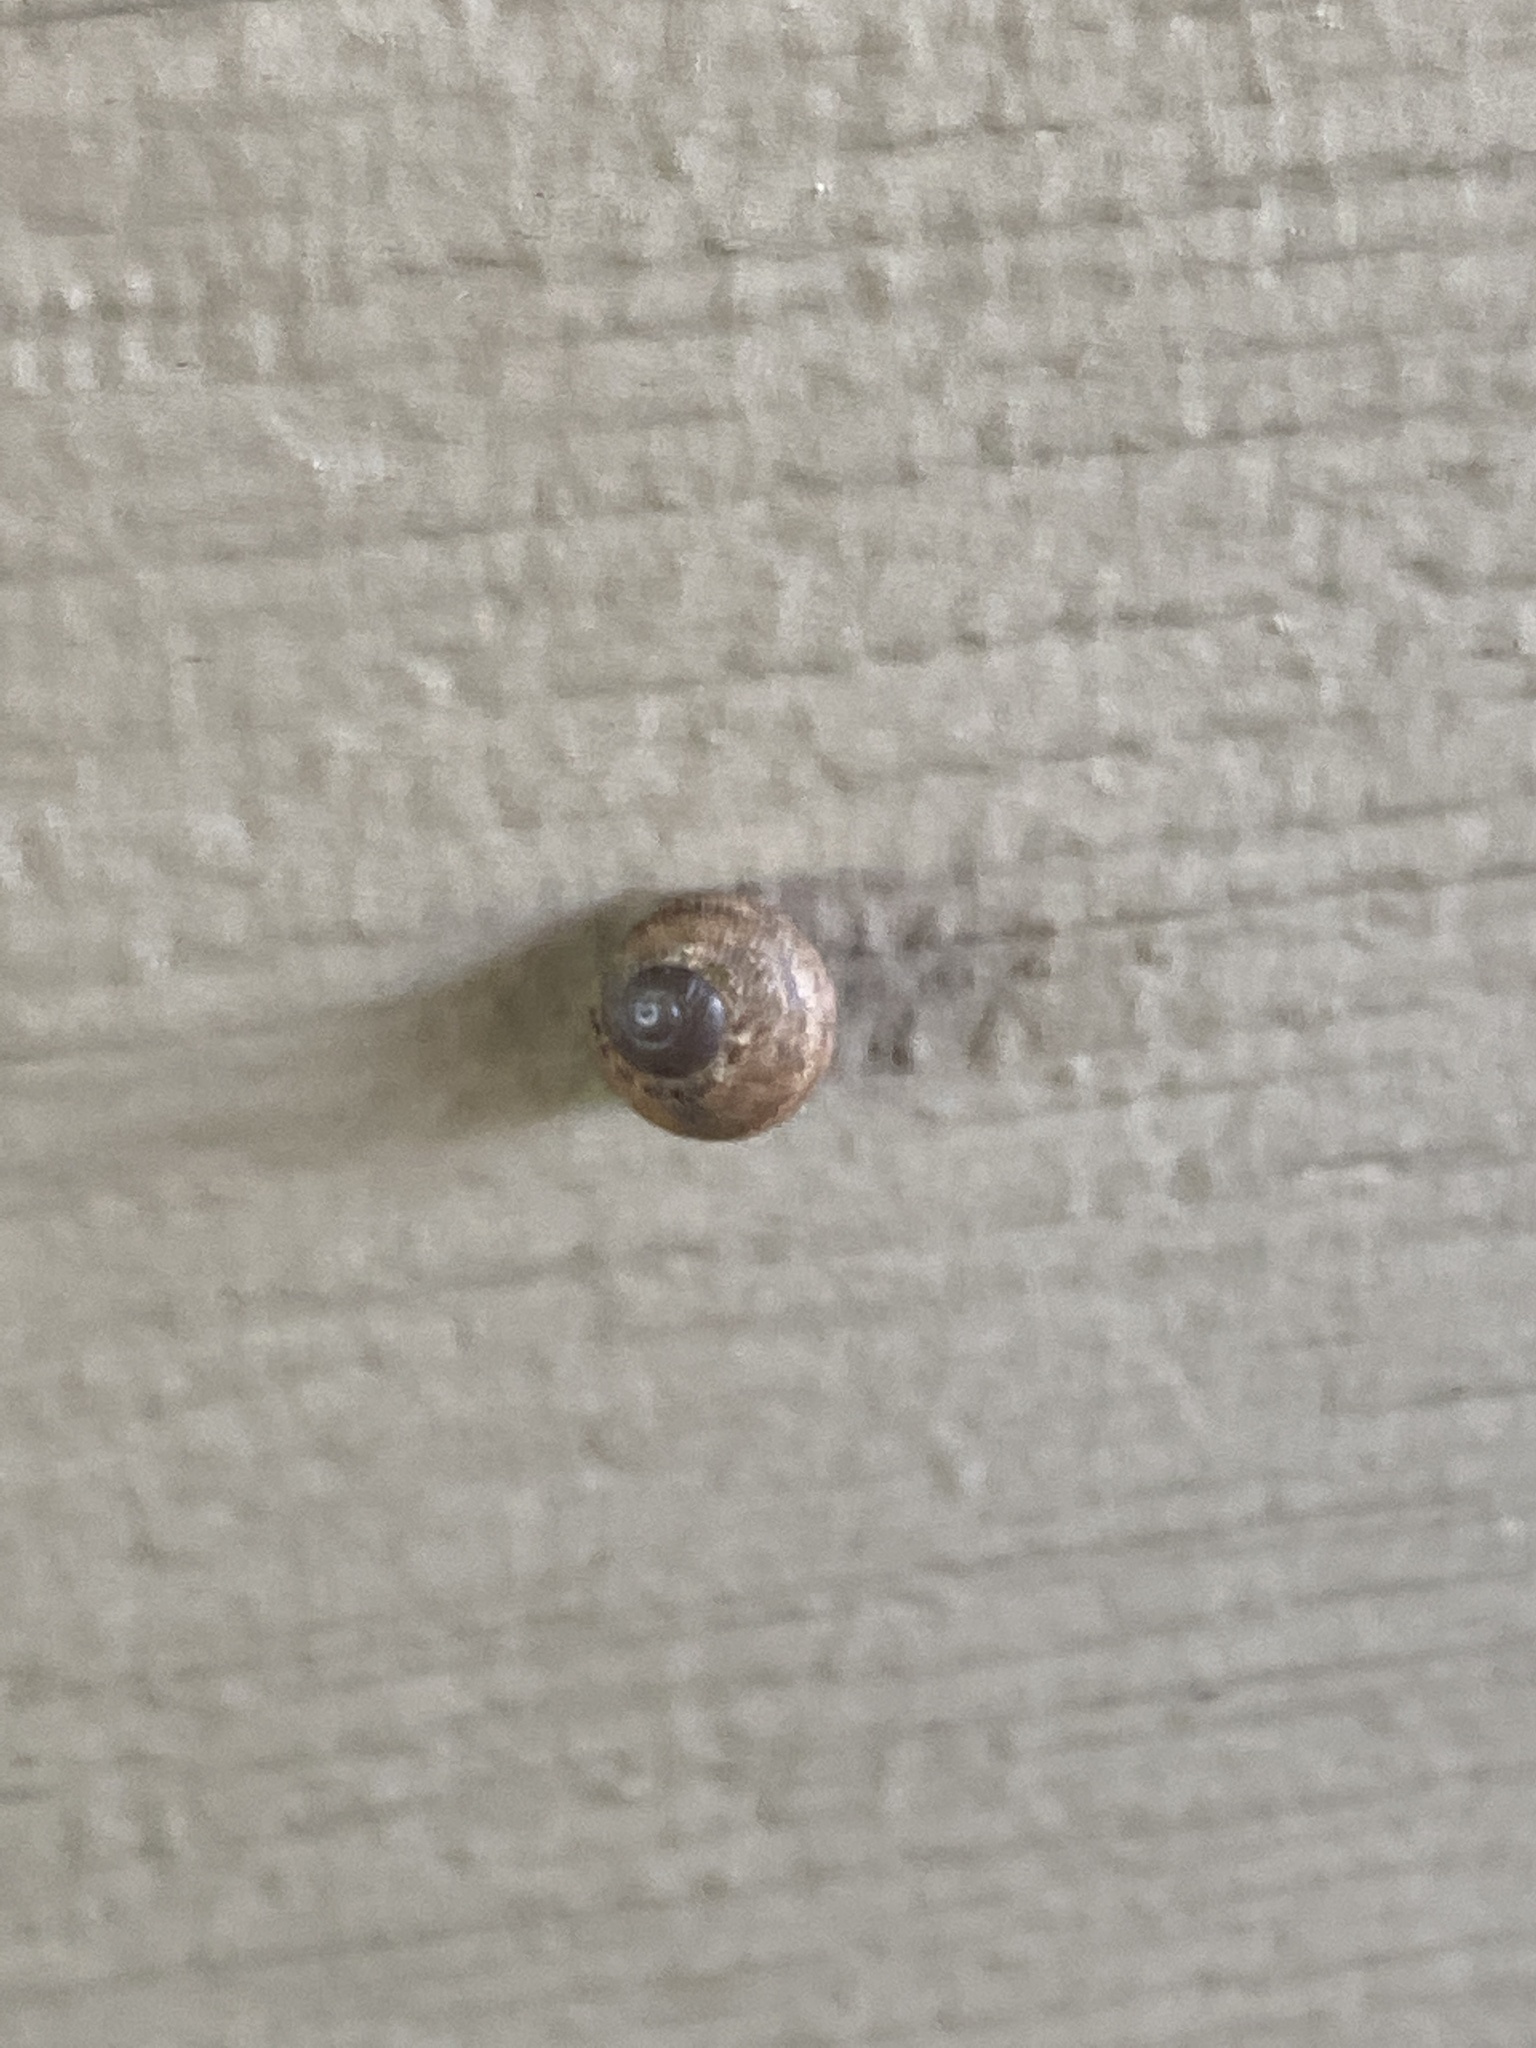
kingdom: Animalia
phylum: Mollusca
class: Gastropoda
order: Stylommatophora
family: Helicidae
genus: Cornu
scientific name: Cornu aspersum
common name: Brown garden snail
